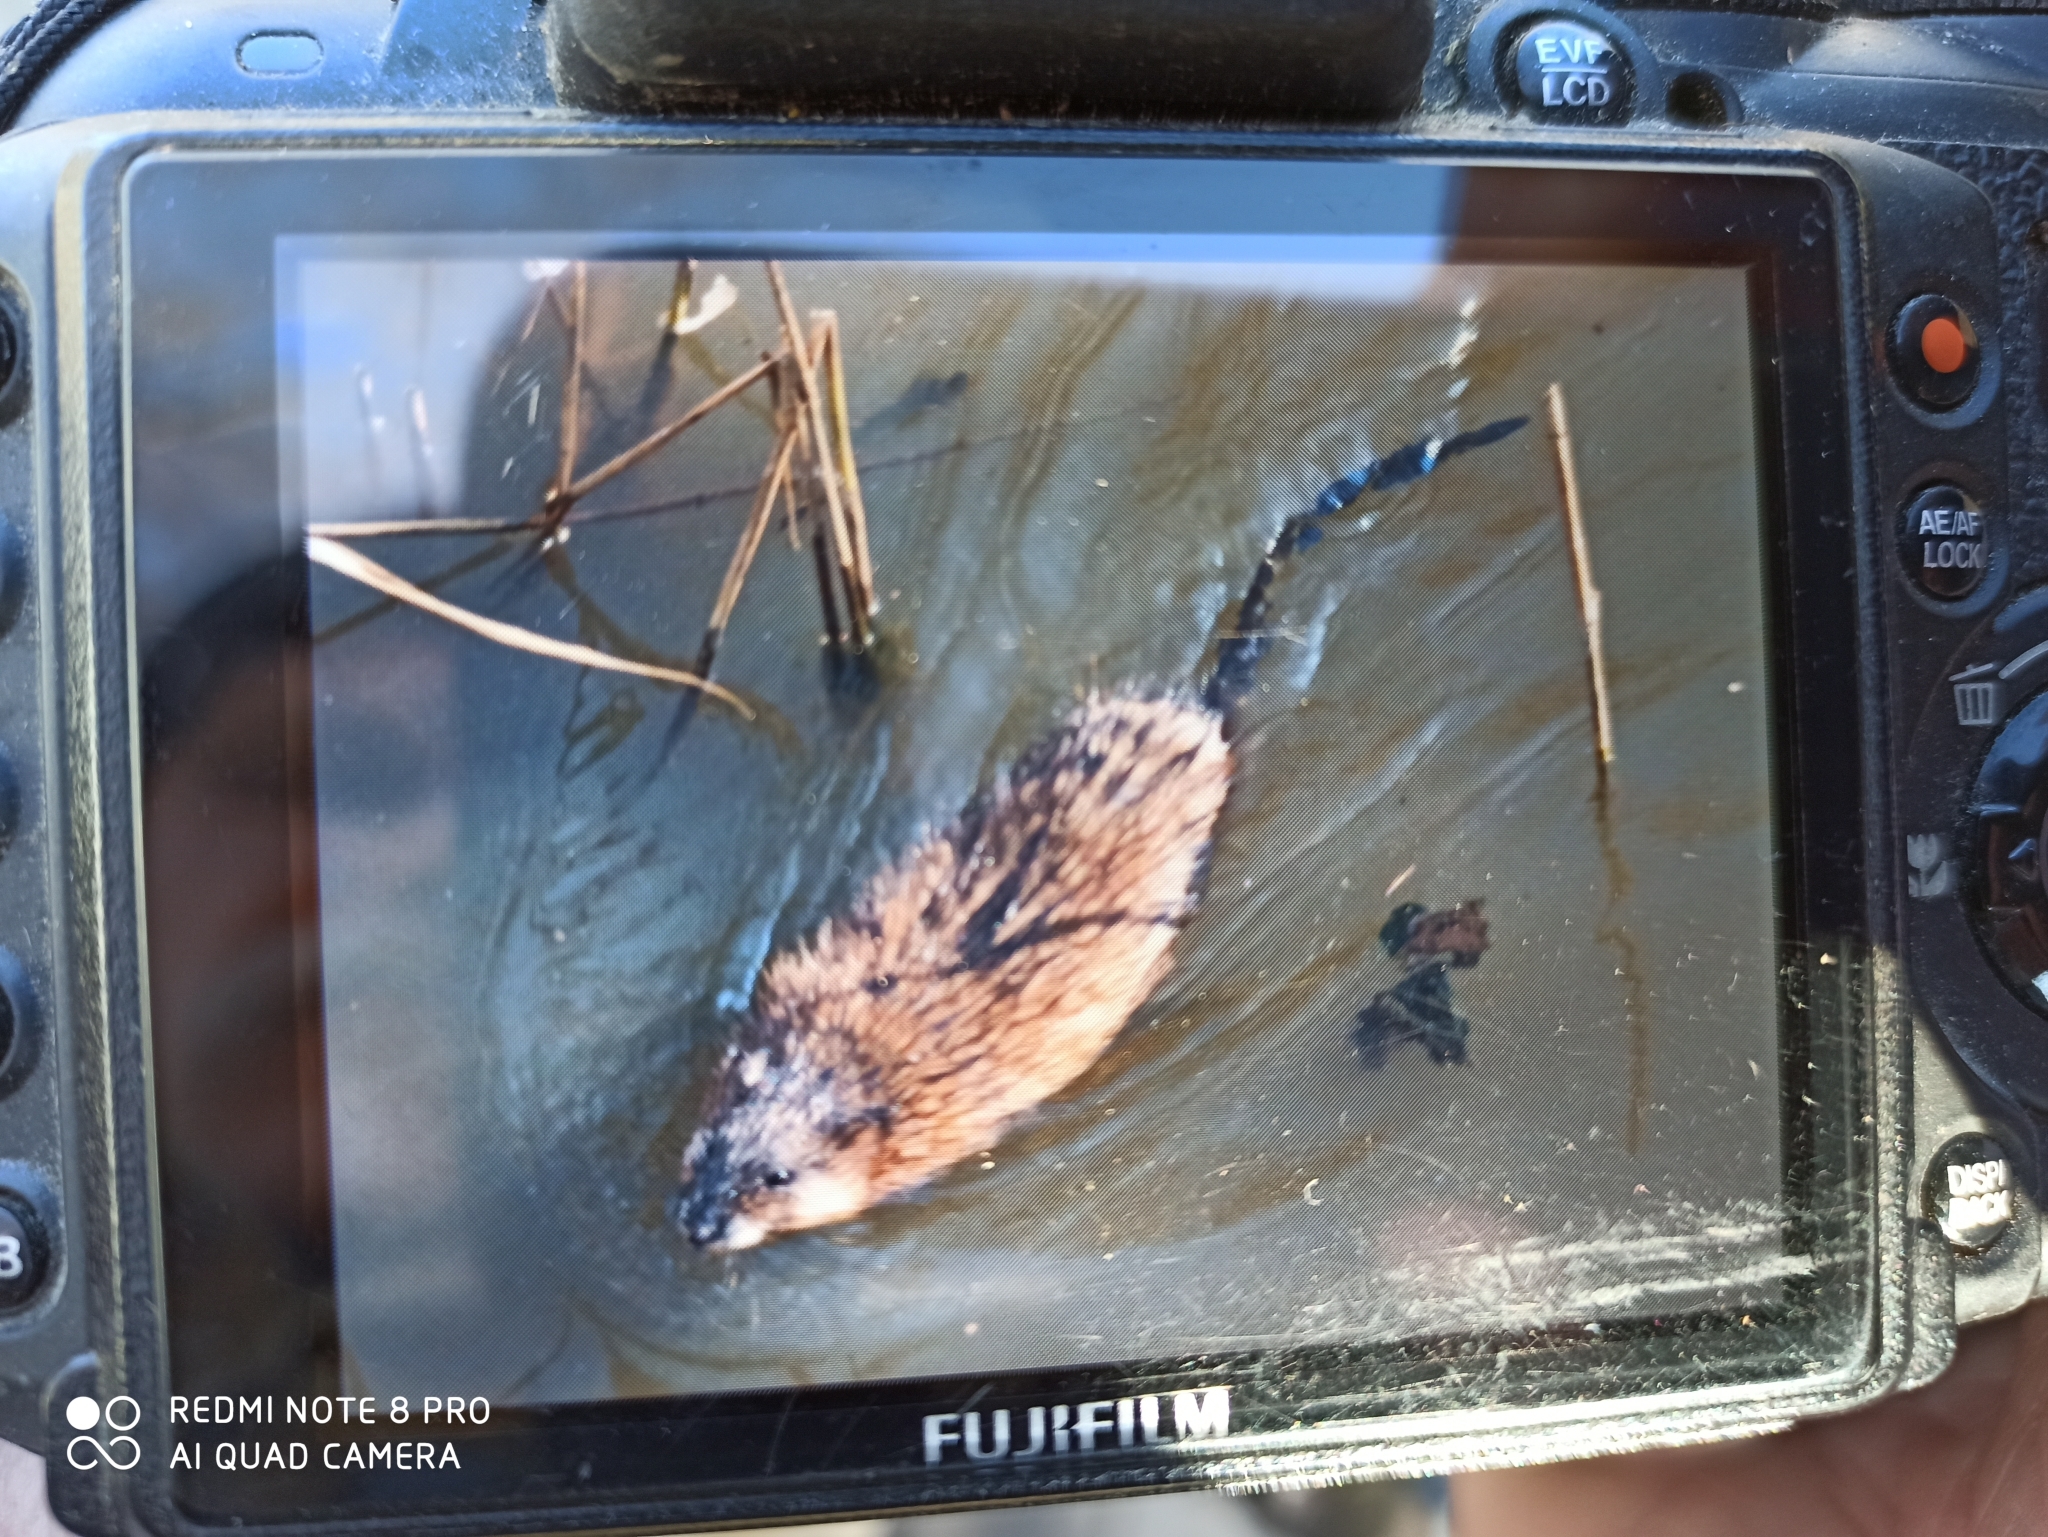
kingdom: Animalia
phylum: Chordata
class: Mammalia
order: Rodentia
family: Cricetidae
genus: Ondatra
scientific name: Ondatra zibethicus
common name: Muskrat
